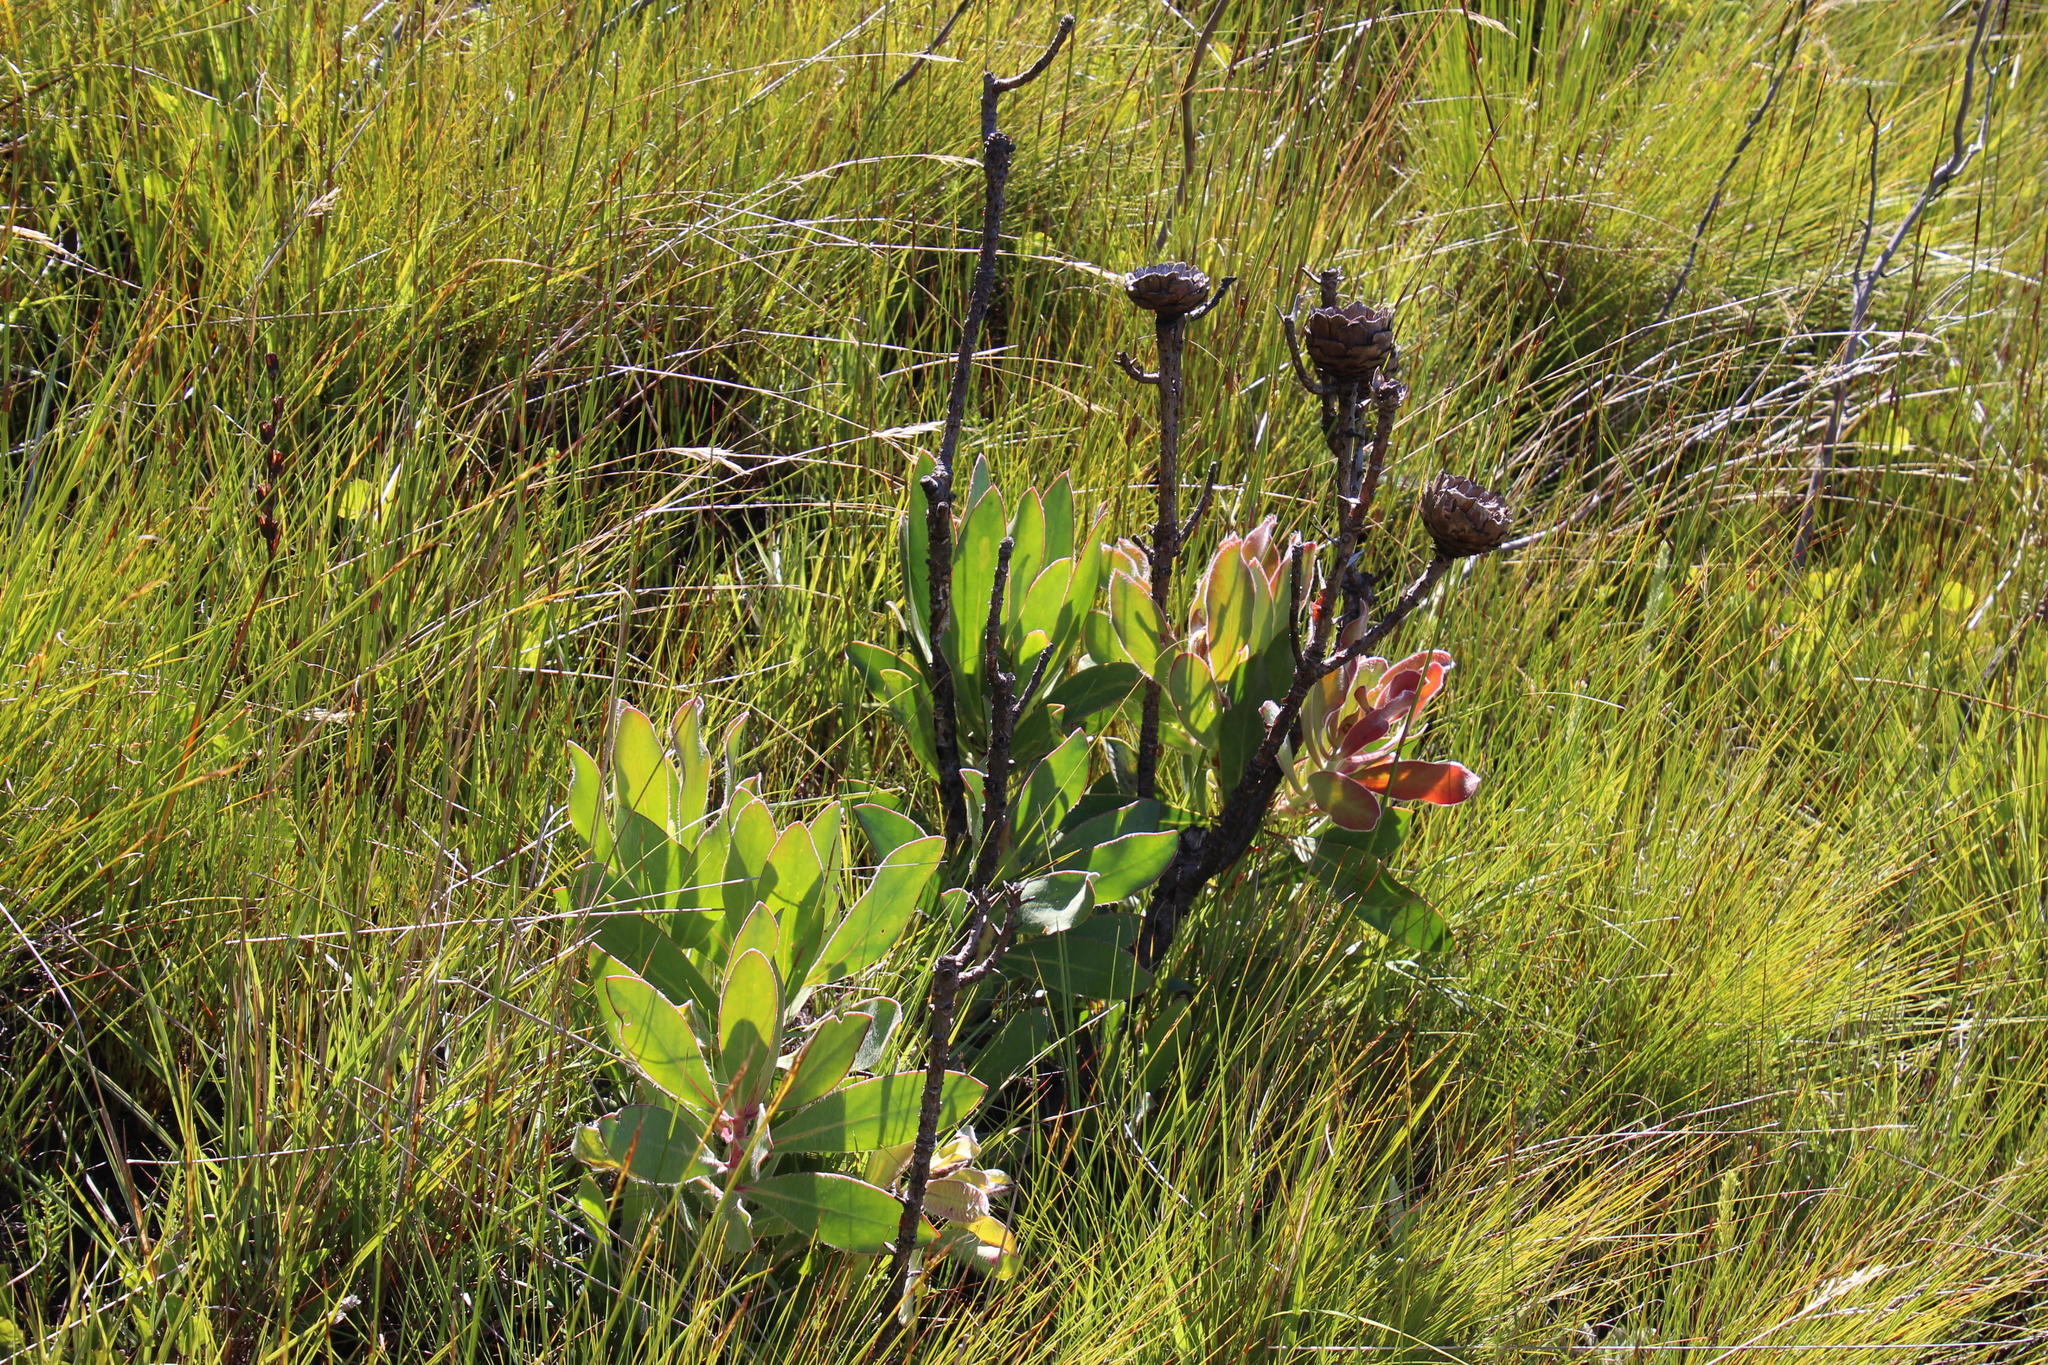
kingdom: Plantae
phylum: Tracheophyta
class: Magnoliopsida
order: Proteales
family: Proteaceae
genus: Protea
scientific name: Protea speciosa
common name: Brown-beard sugarbush
